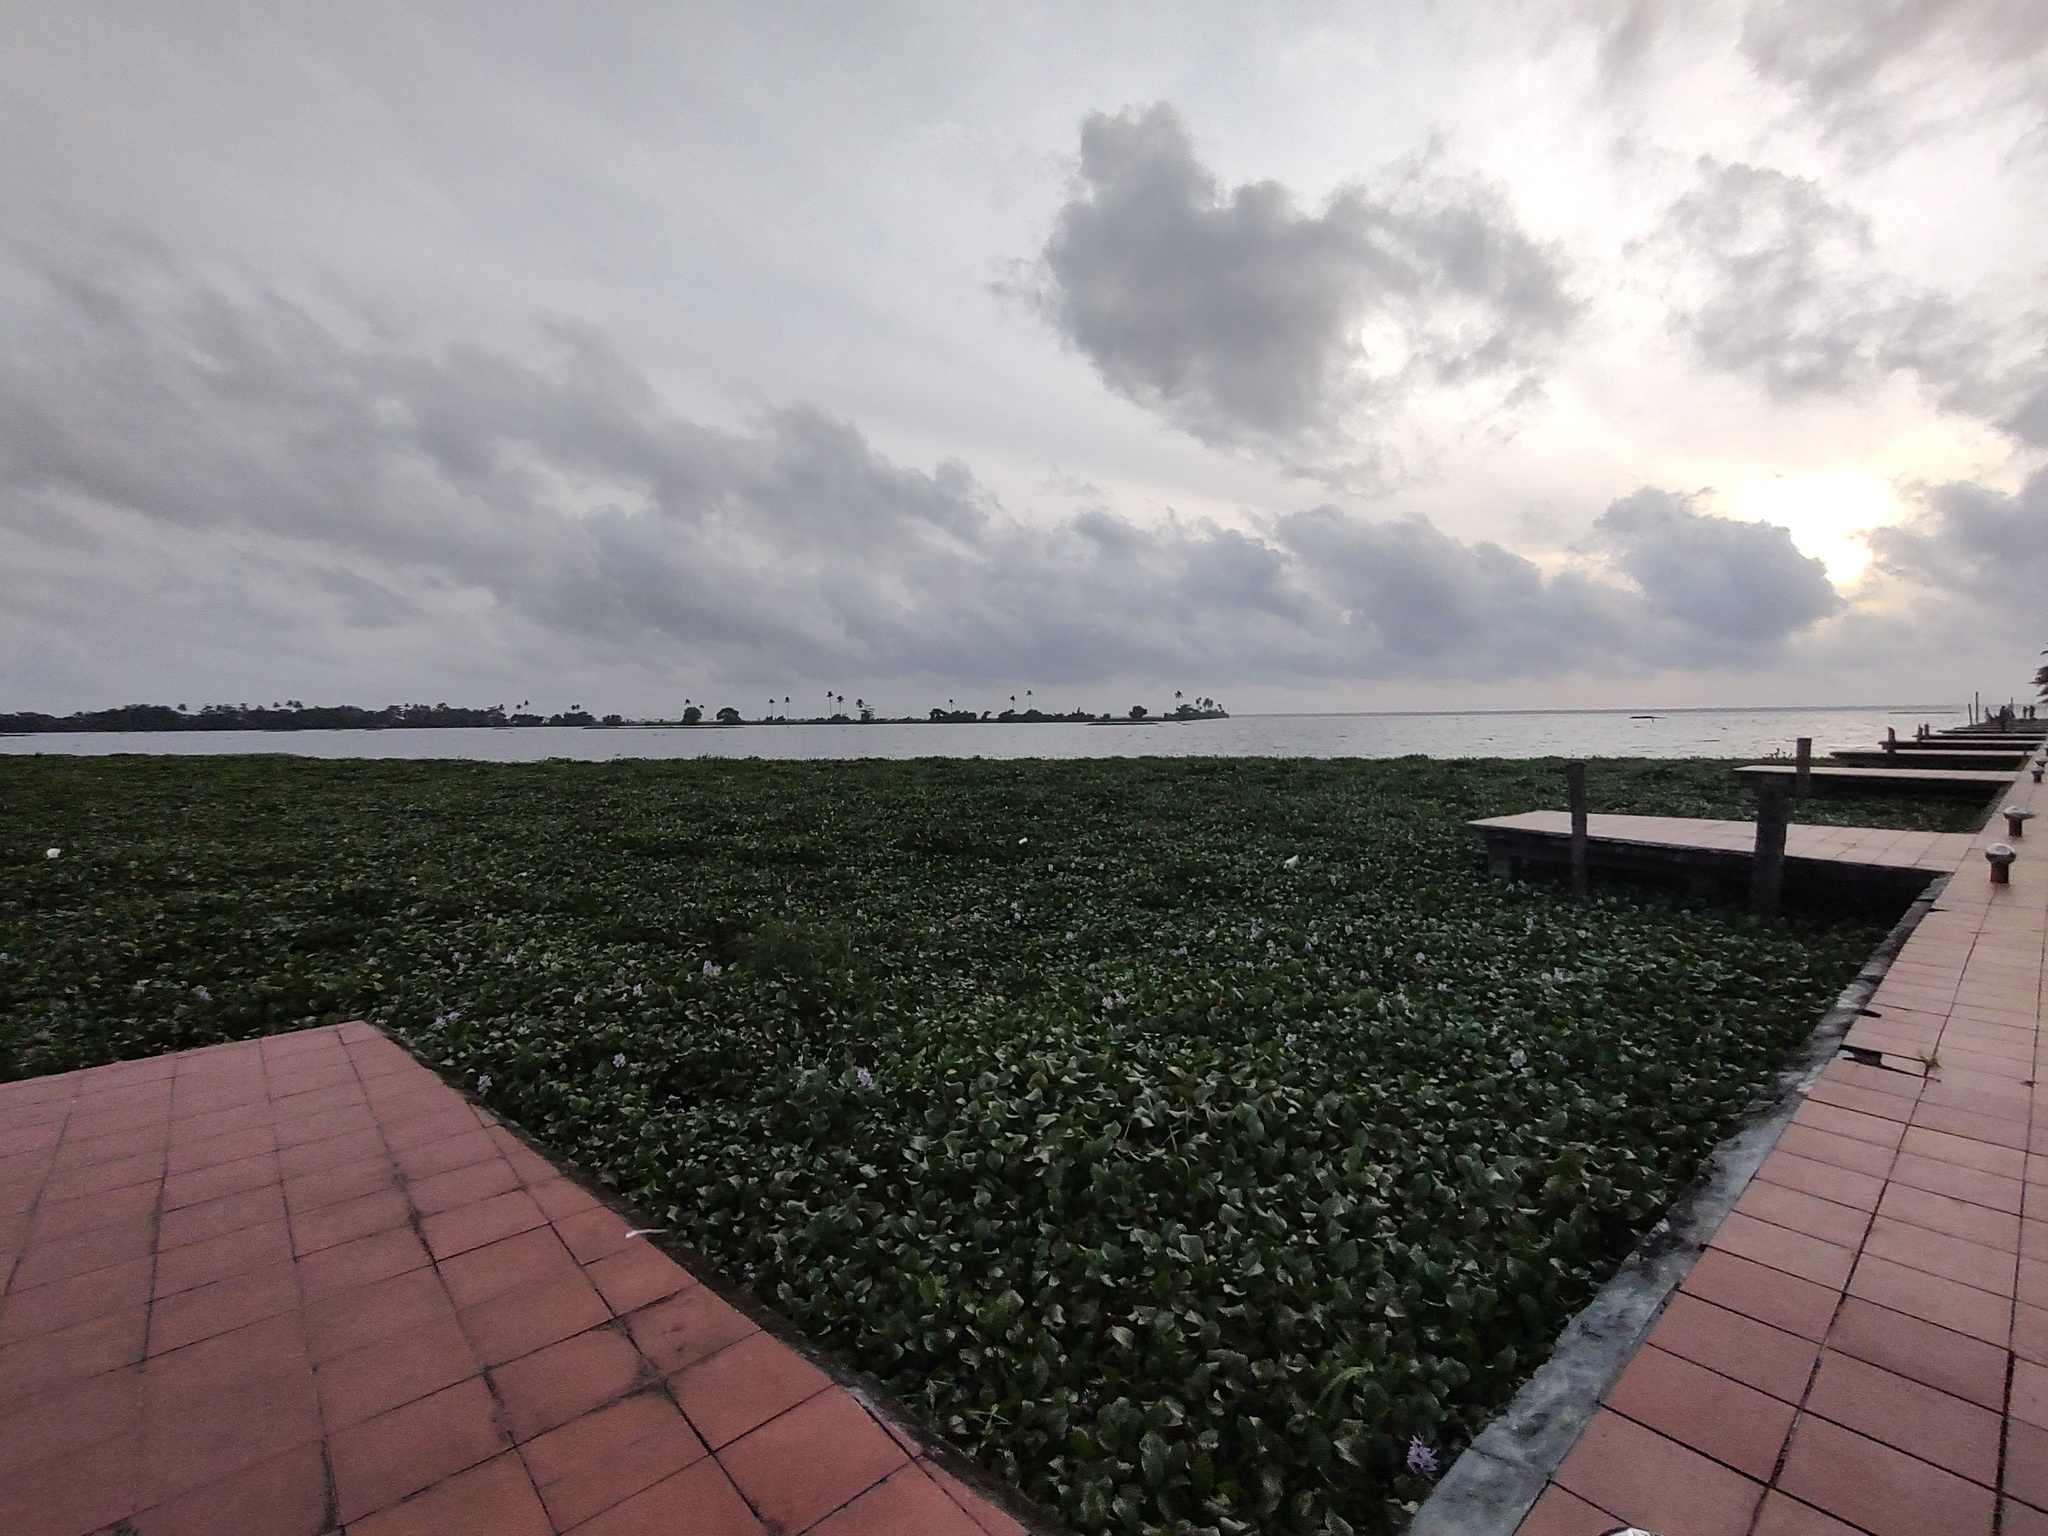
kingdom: Plantae
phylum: Tracheophyta
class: Liliopsida
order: Commelinales
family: Pontederiaceae
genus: Pontederia
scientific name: Pontederia crassipes
